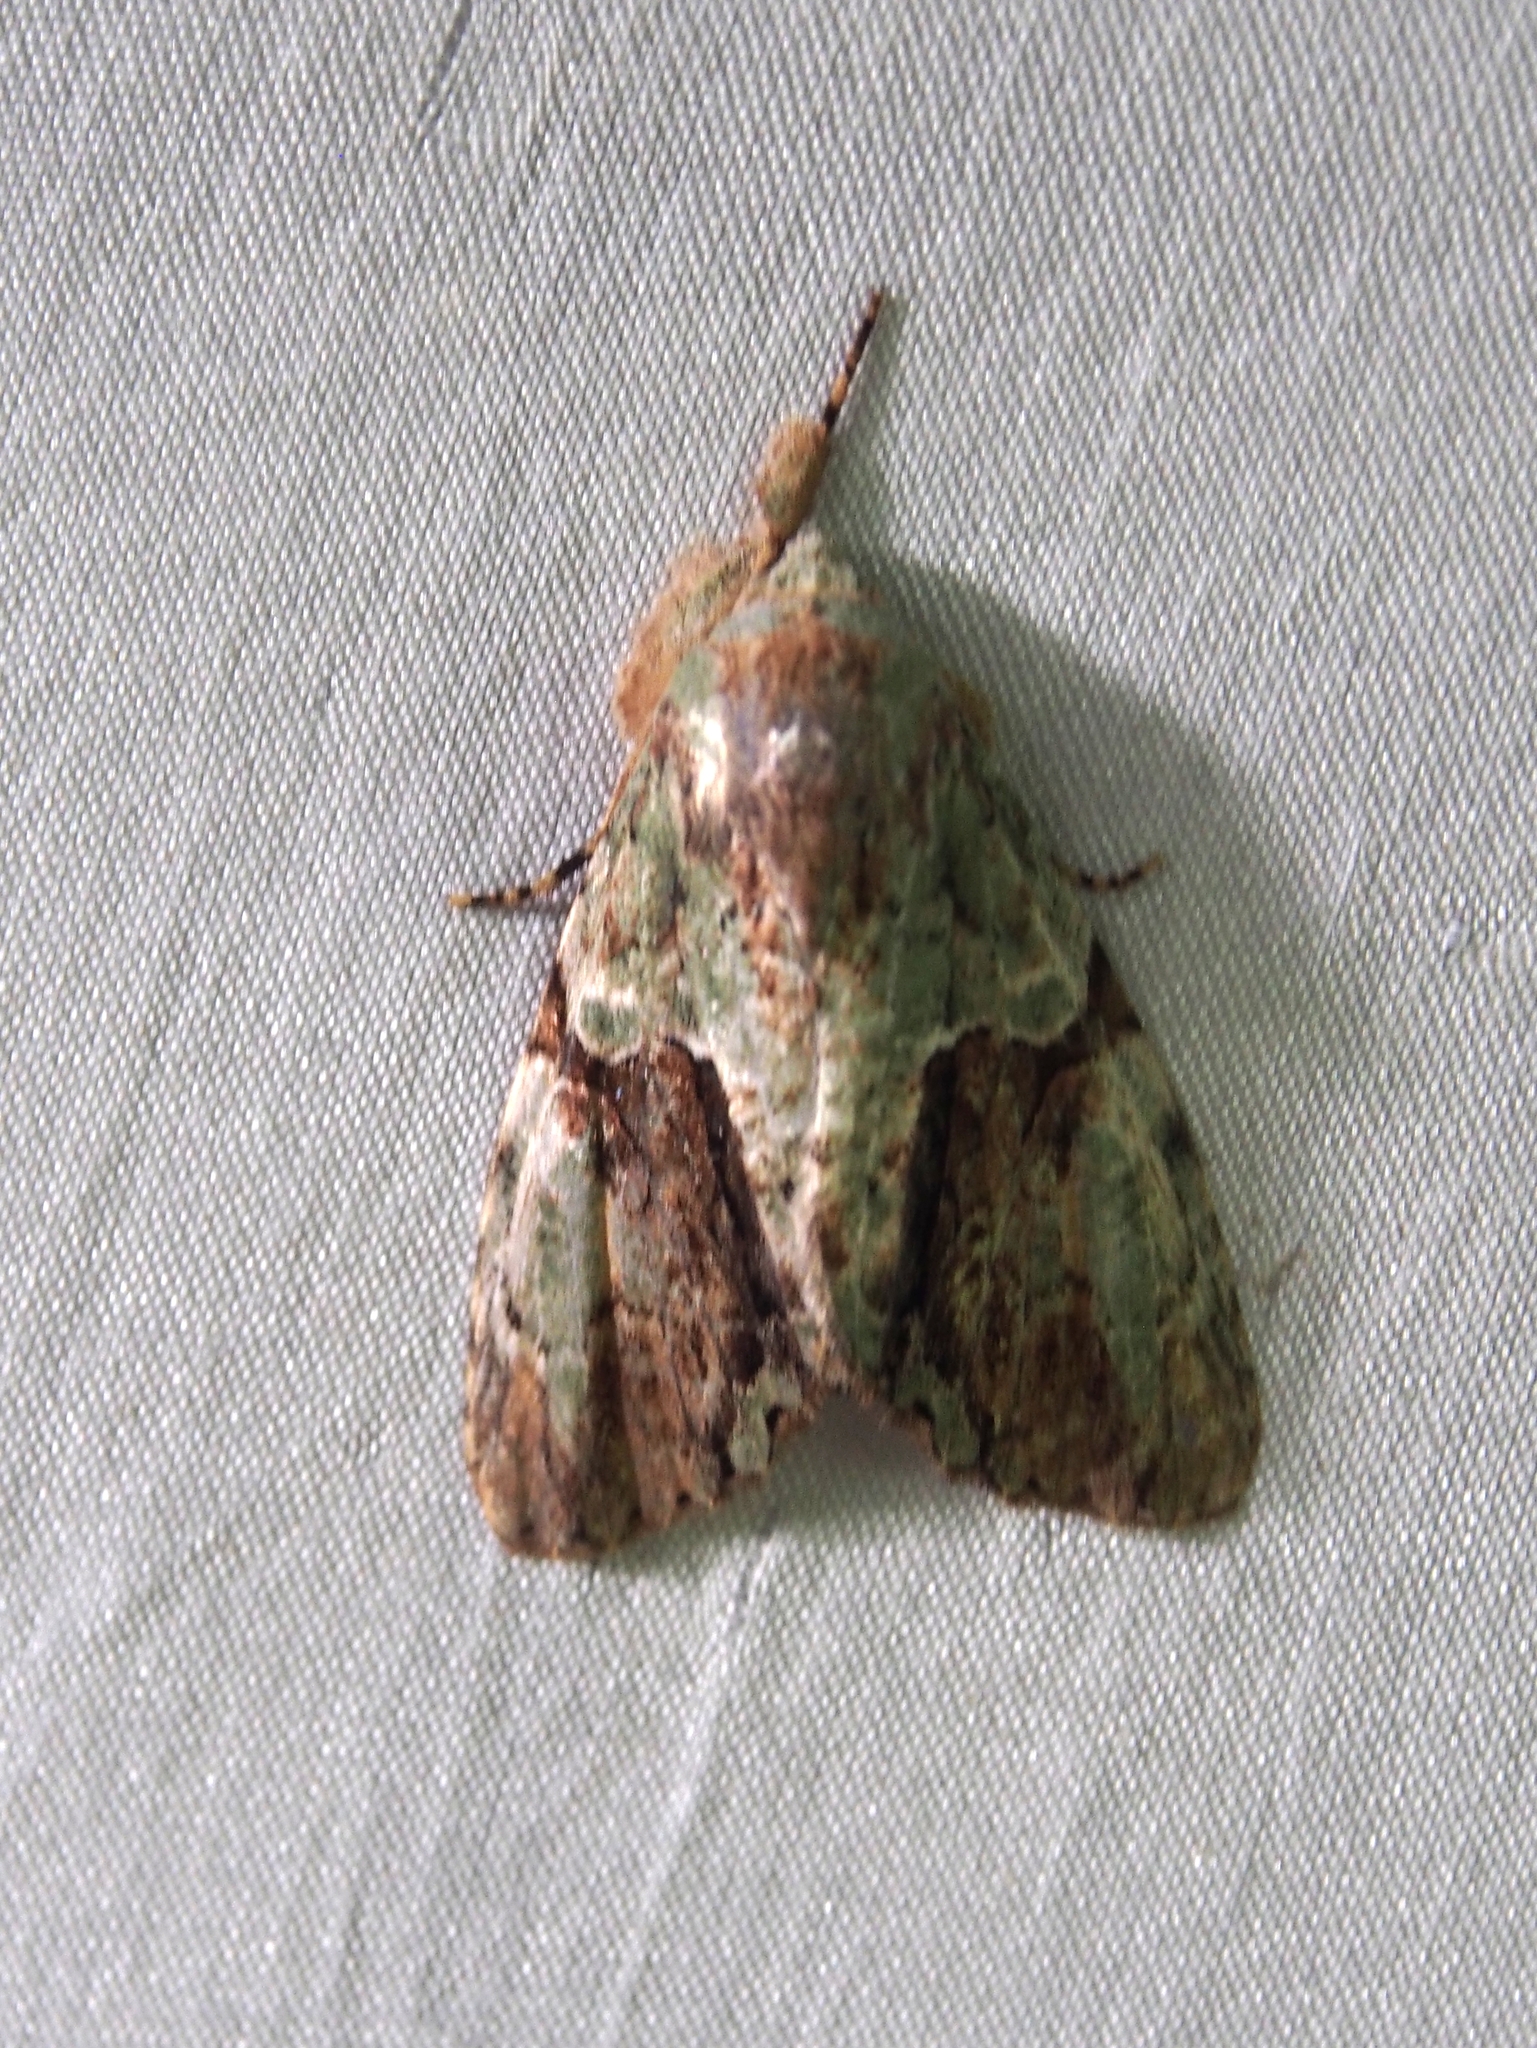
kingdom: Animalia
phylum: Arthropoda
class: Insecta
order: Lepidoptera
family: Noctuidae
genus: Stauropides
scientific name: Stauropides persimilis
